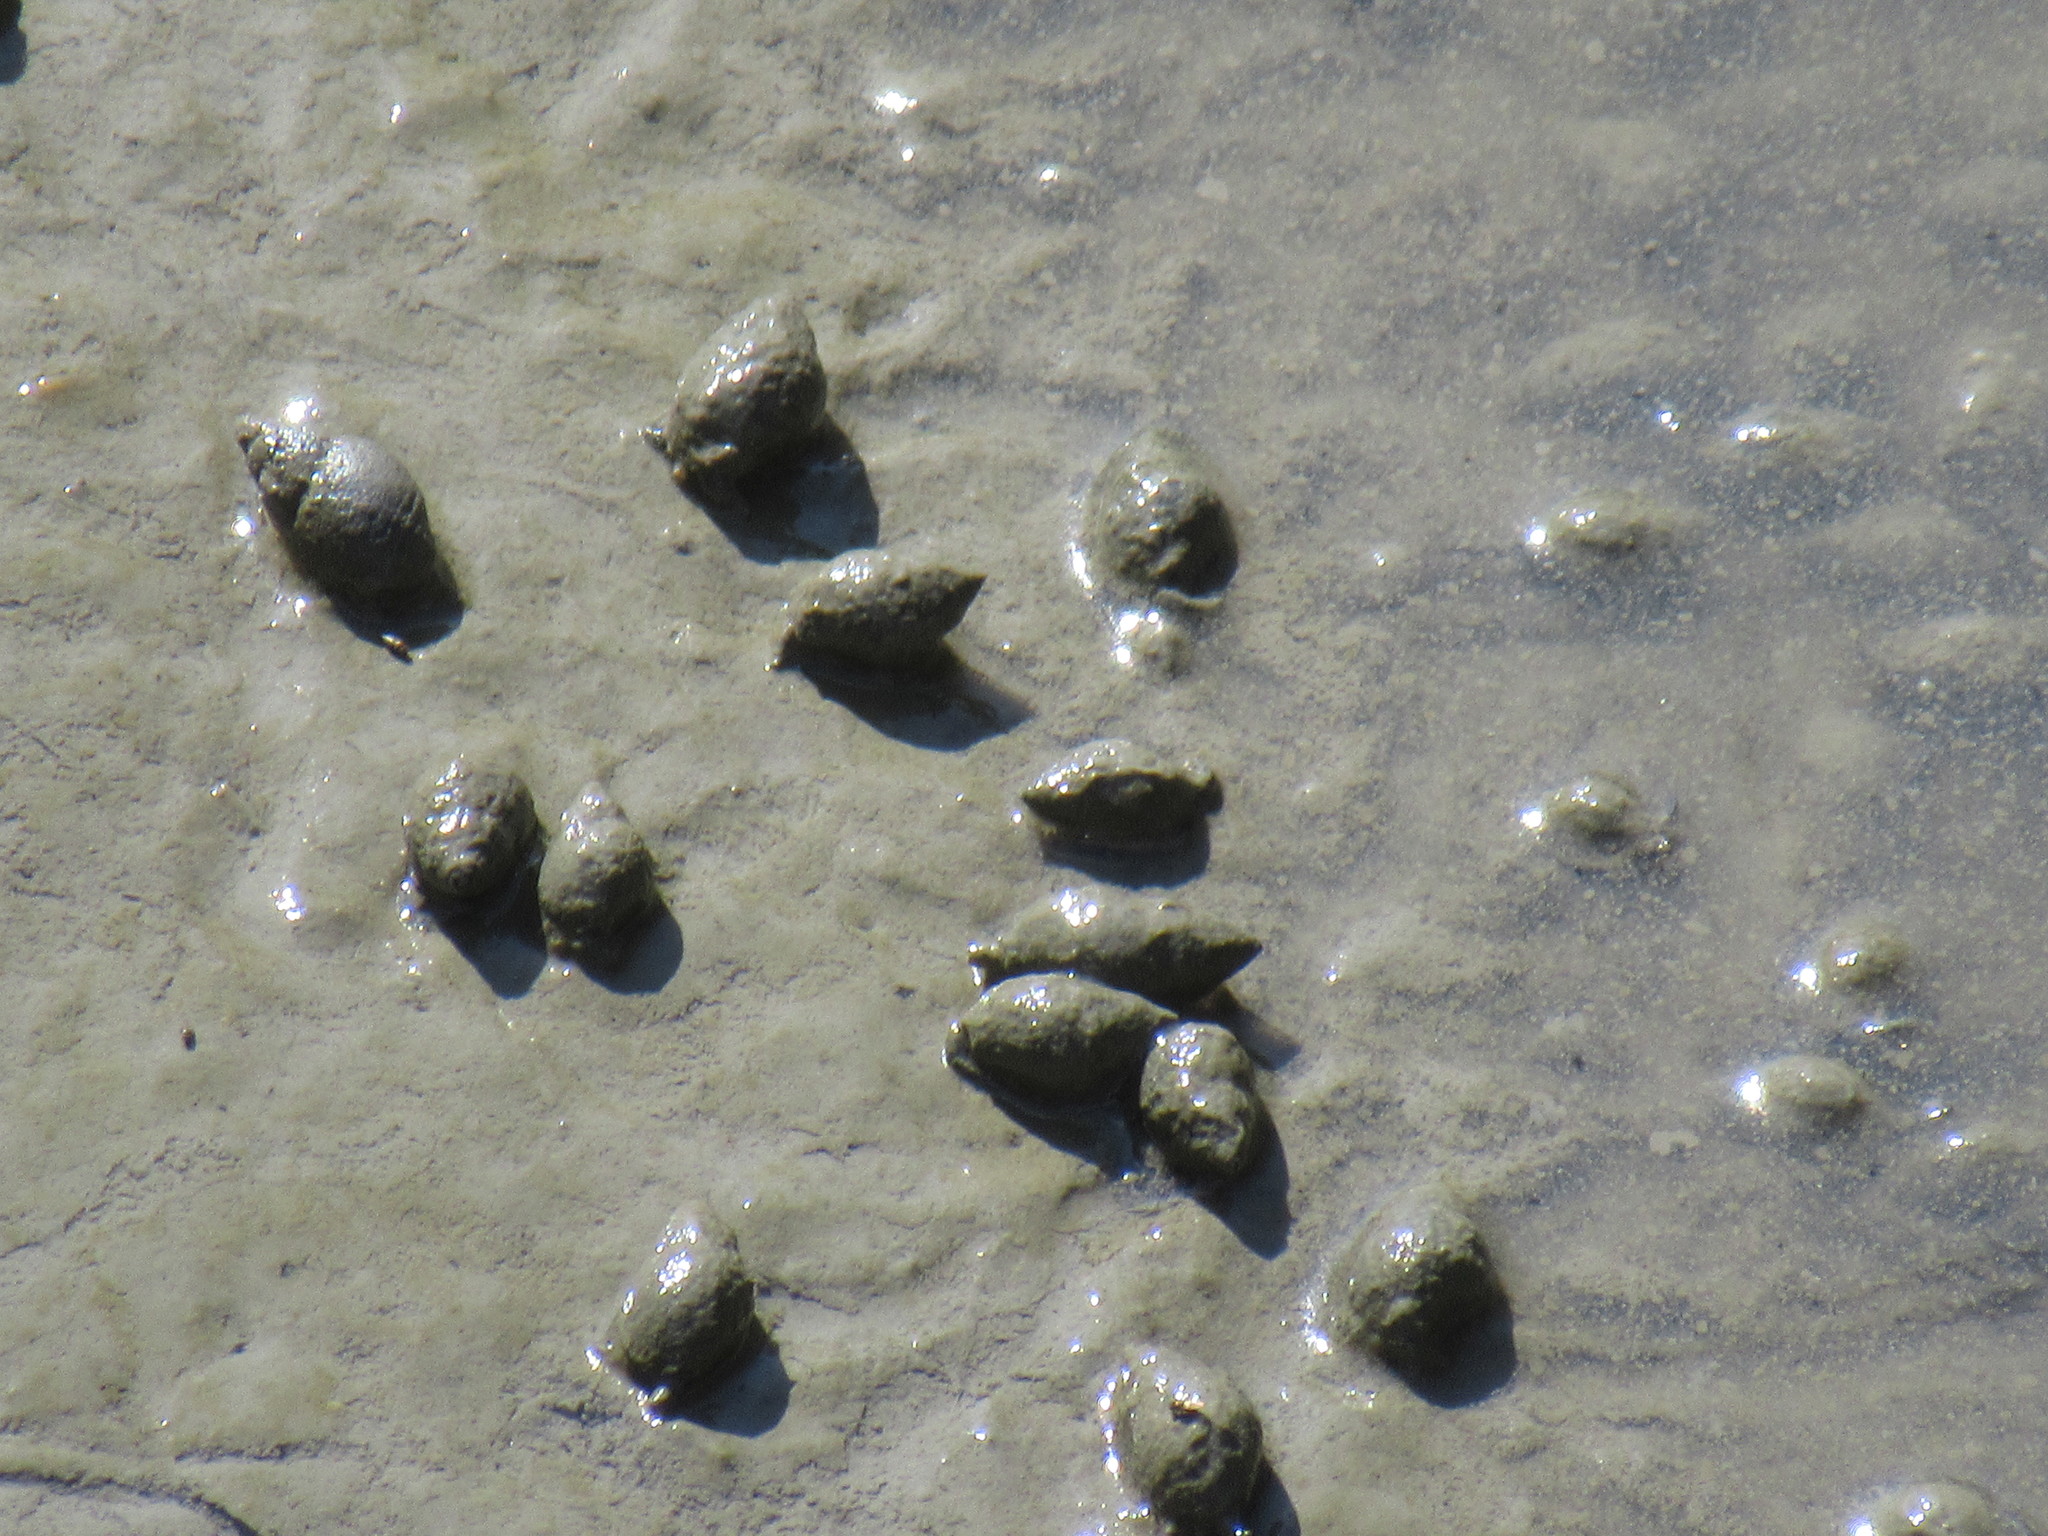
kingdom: Animalia
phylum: Mollusca
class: Gastropoda
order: Neogastropoda
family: Nassariidae
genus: Ilyanassa
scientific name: Ilyanassa obsoleta
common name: Eastern mudsnail
